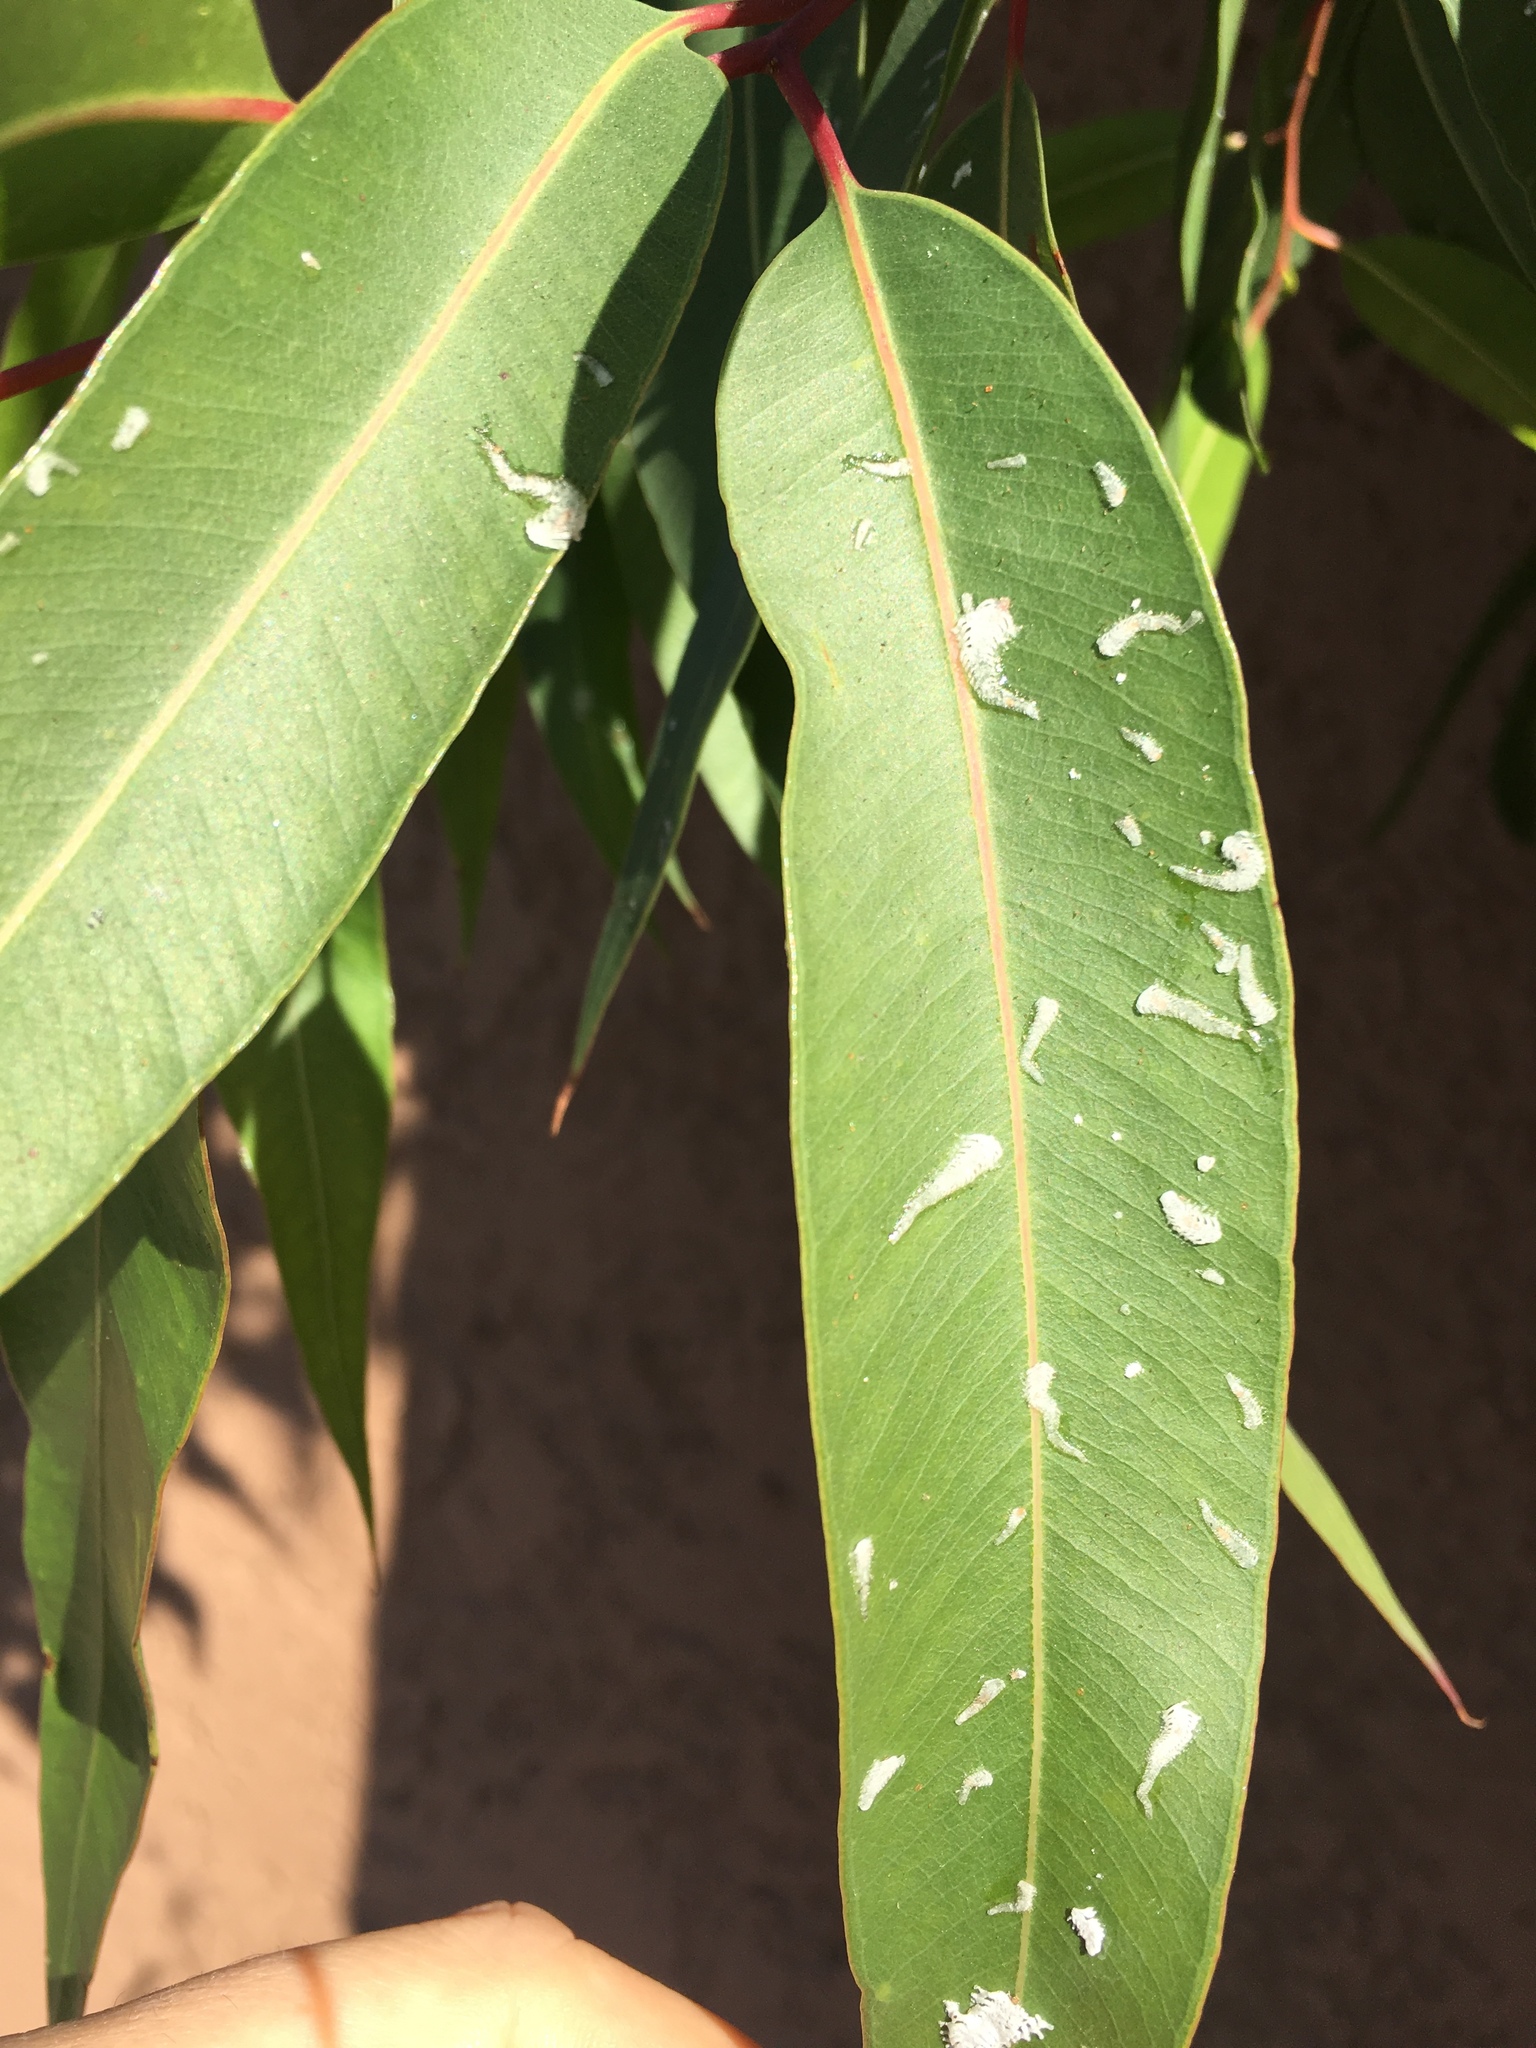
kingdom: Animalia
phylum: Arthropoda
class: Insecta
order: Hemiptera
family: Aphalaridae
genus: Eucalyptolyma
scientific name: Eucalyptolyma maideni
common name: Spotted gum lerp psyllid
